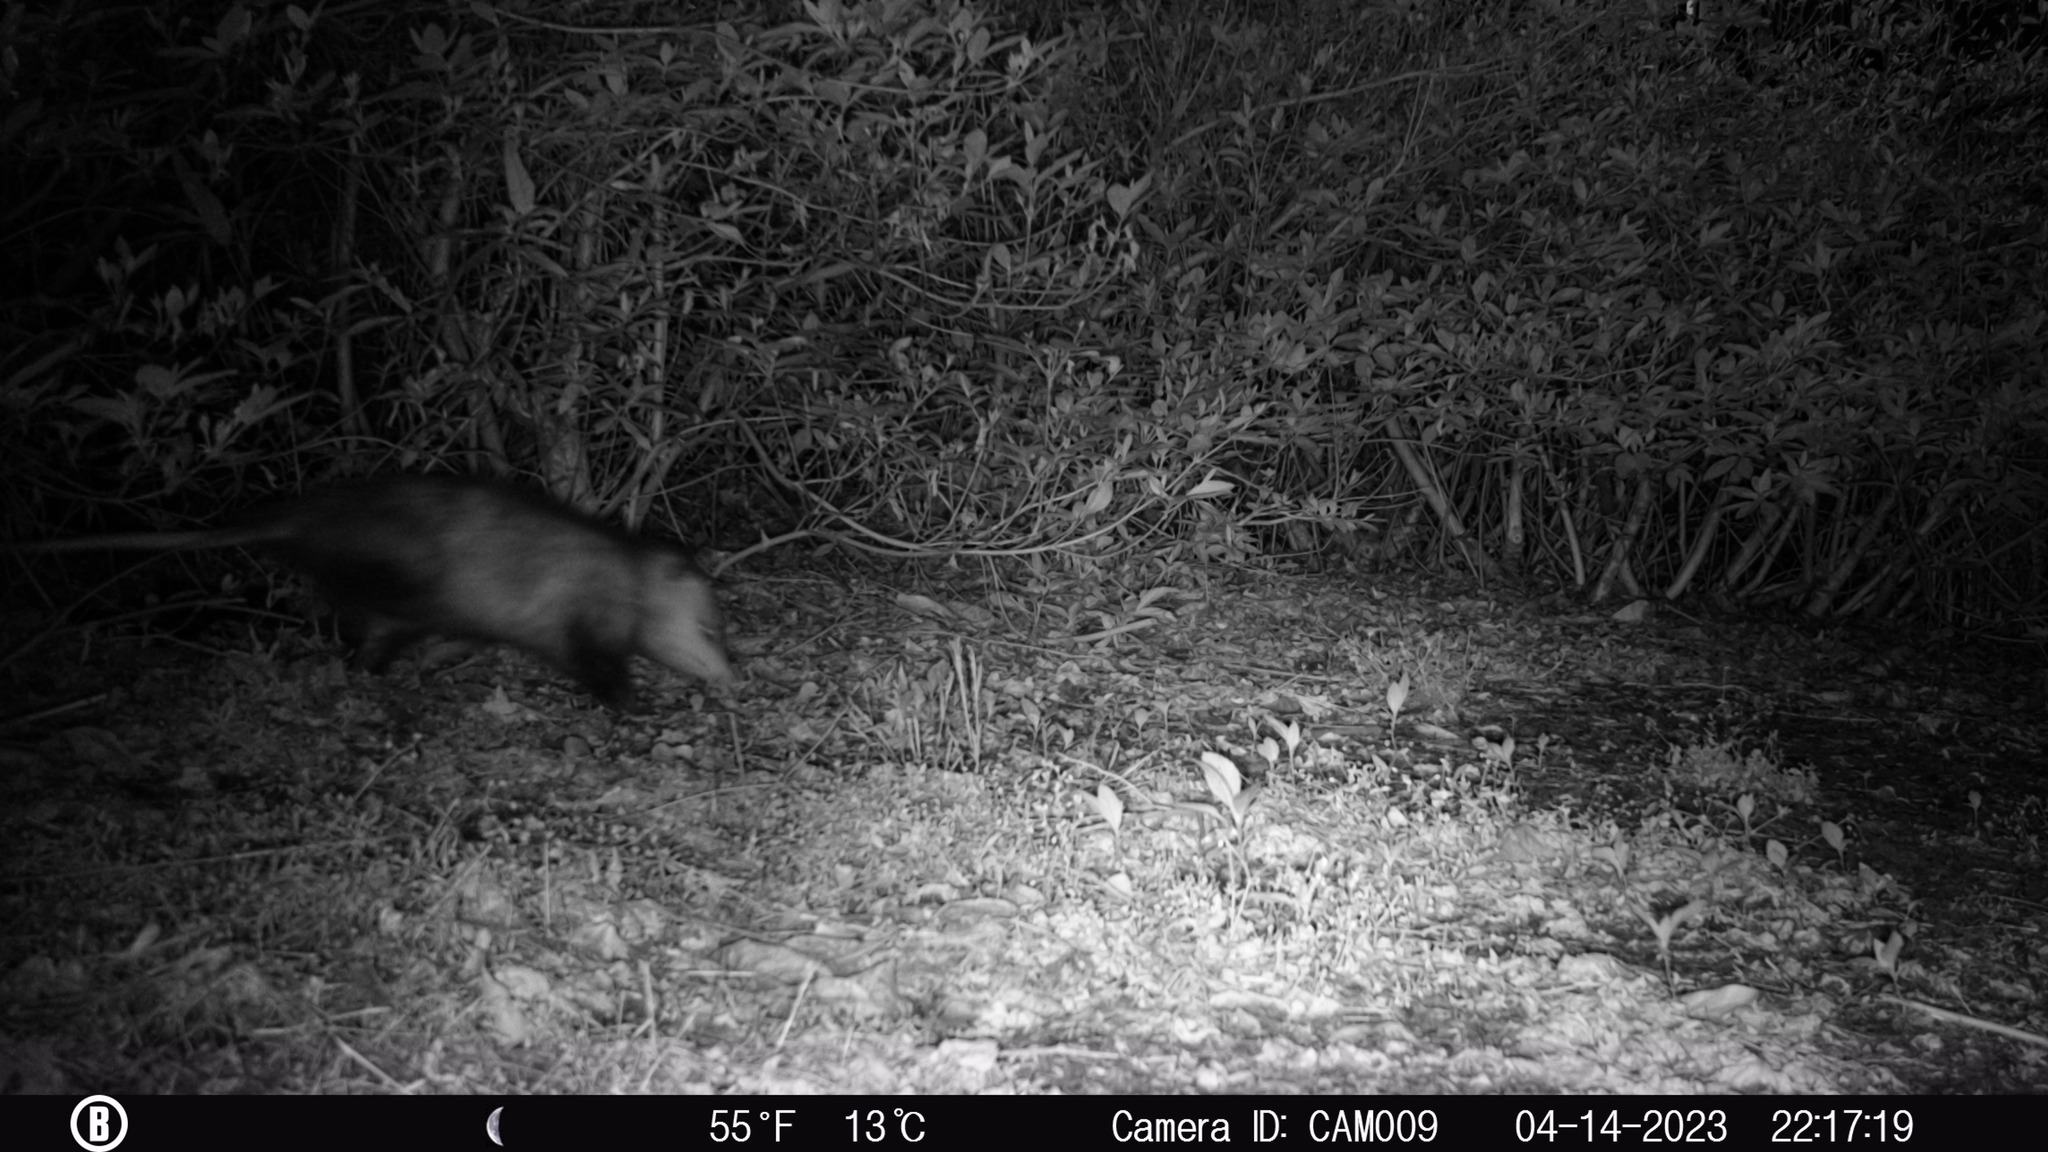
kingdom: Animalia
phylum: Chordata
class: Mammalia
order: Didelphimorphia
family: Didelphidae
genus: Didelphis
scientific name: Didelphis virginiana
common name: Virginia opossum
